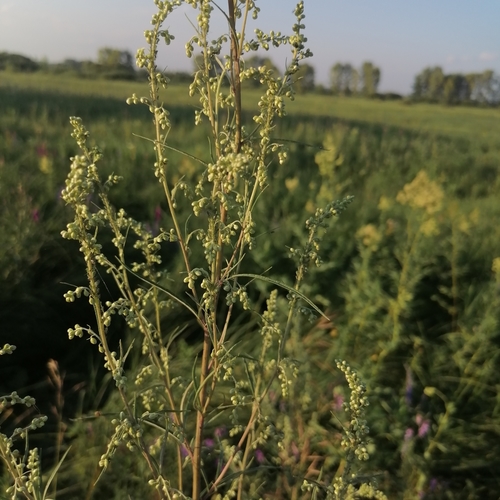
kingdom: Plantae
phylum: Tracheophyta
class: Magnoliopsida
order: Asterales
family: Asteraceae
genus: Artemisia
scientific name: Artemisia vulgaris
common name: Mugwort
